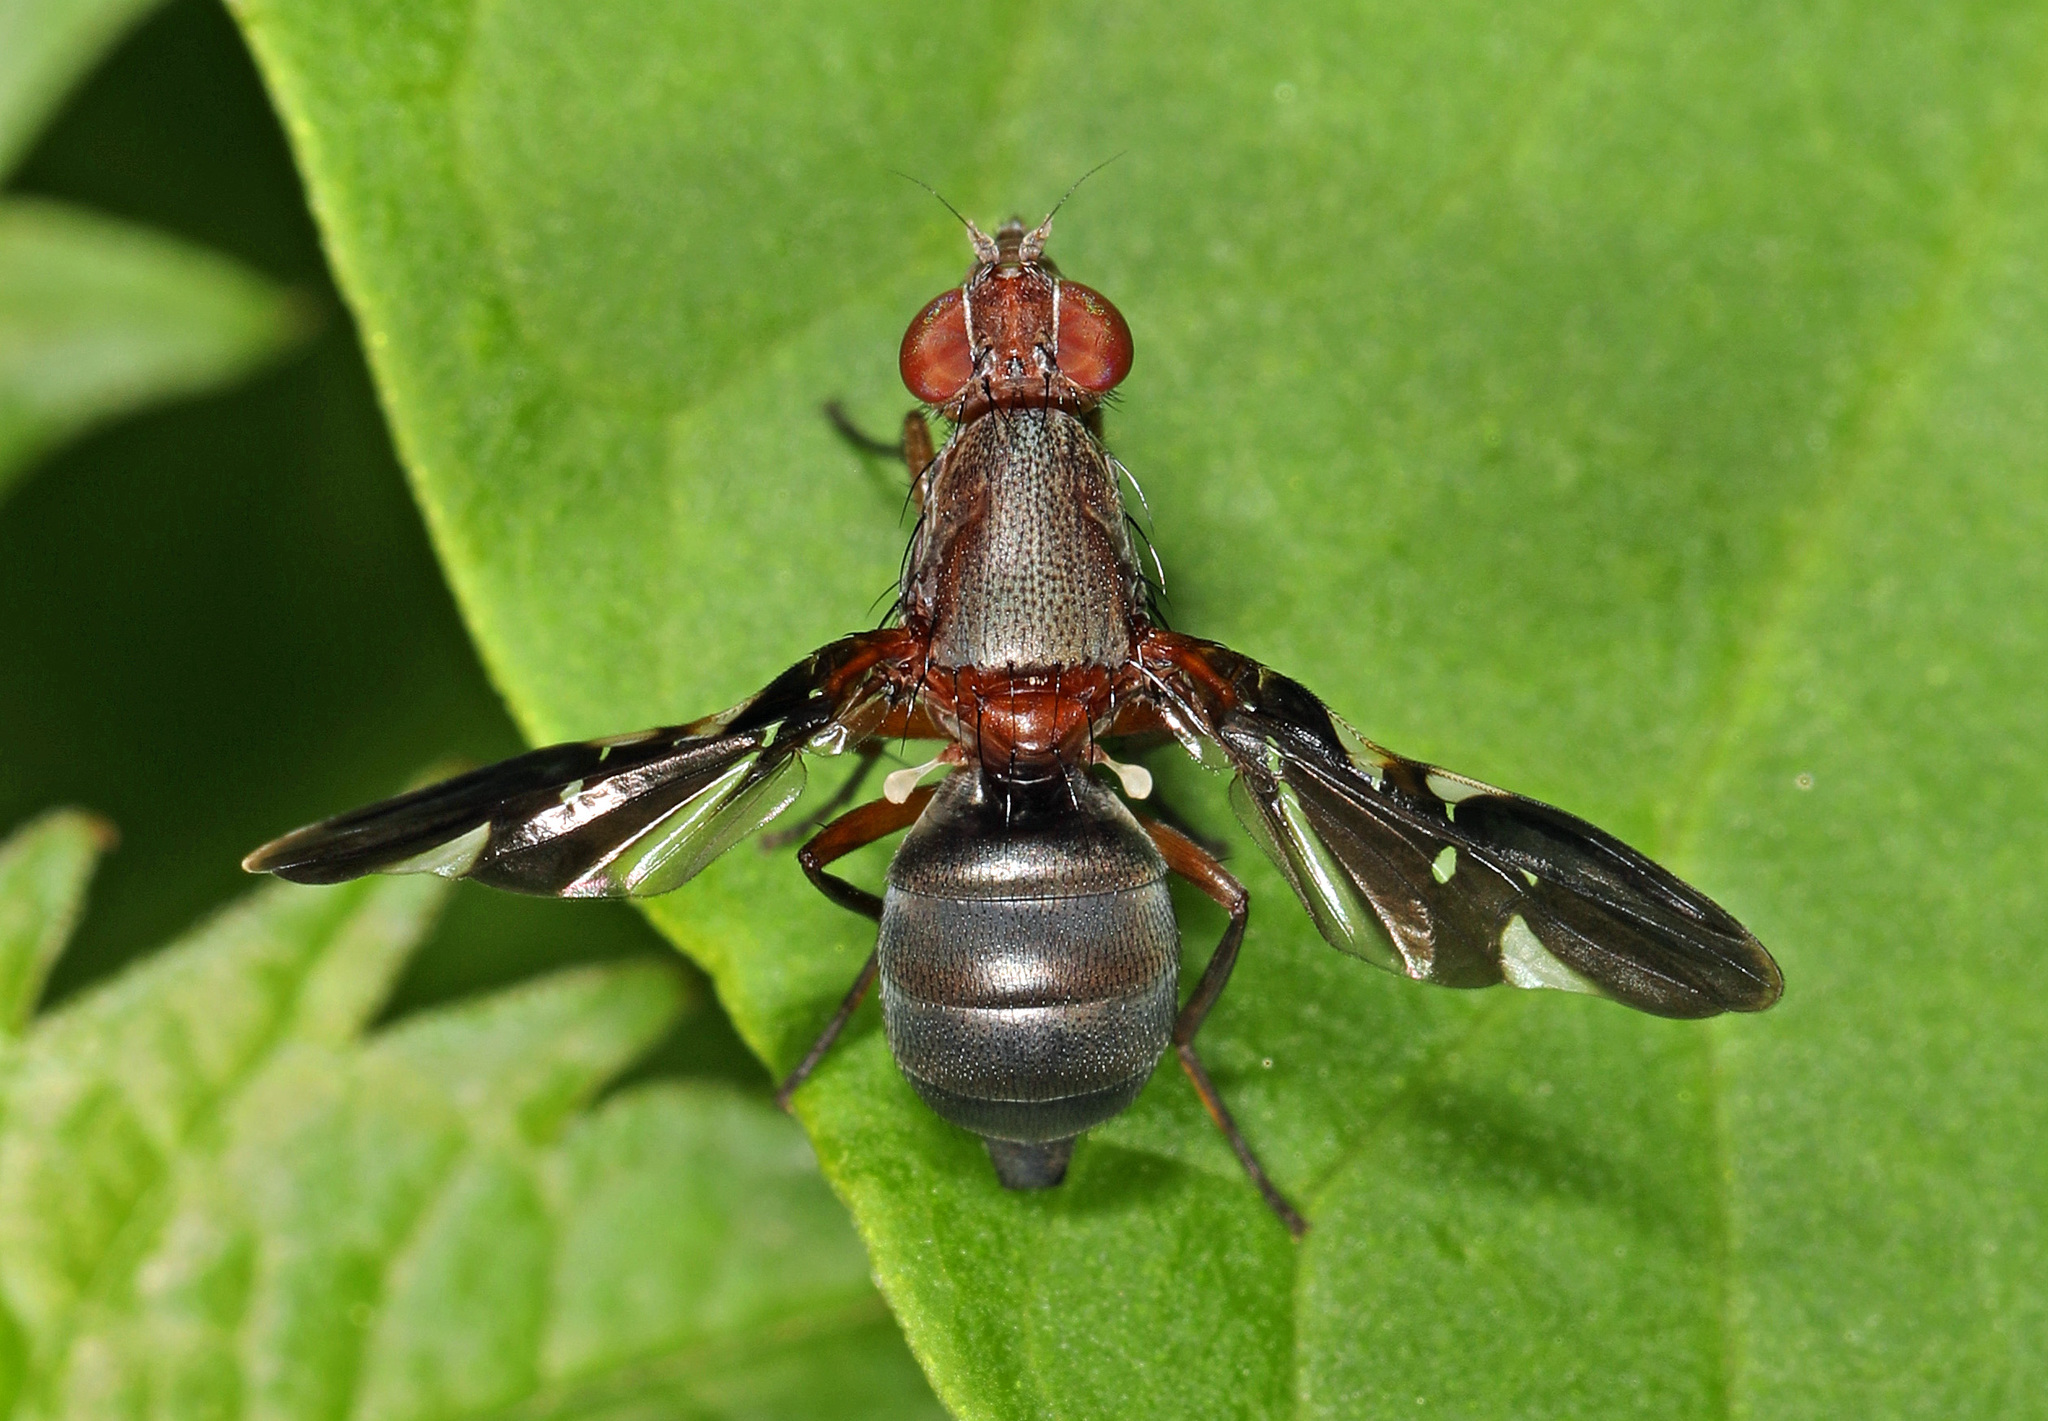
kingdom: Animalia
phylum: Arthropoda
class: Insecta
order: Diptera
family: Ulidiidae
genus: Delphinia
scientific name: Delphinia picta
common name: Common picture-winged fly
